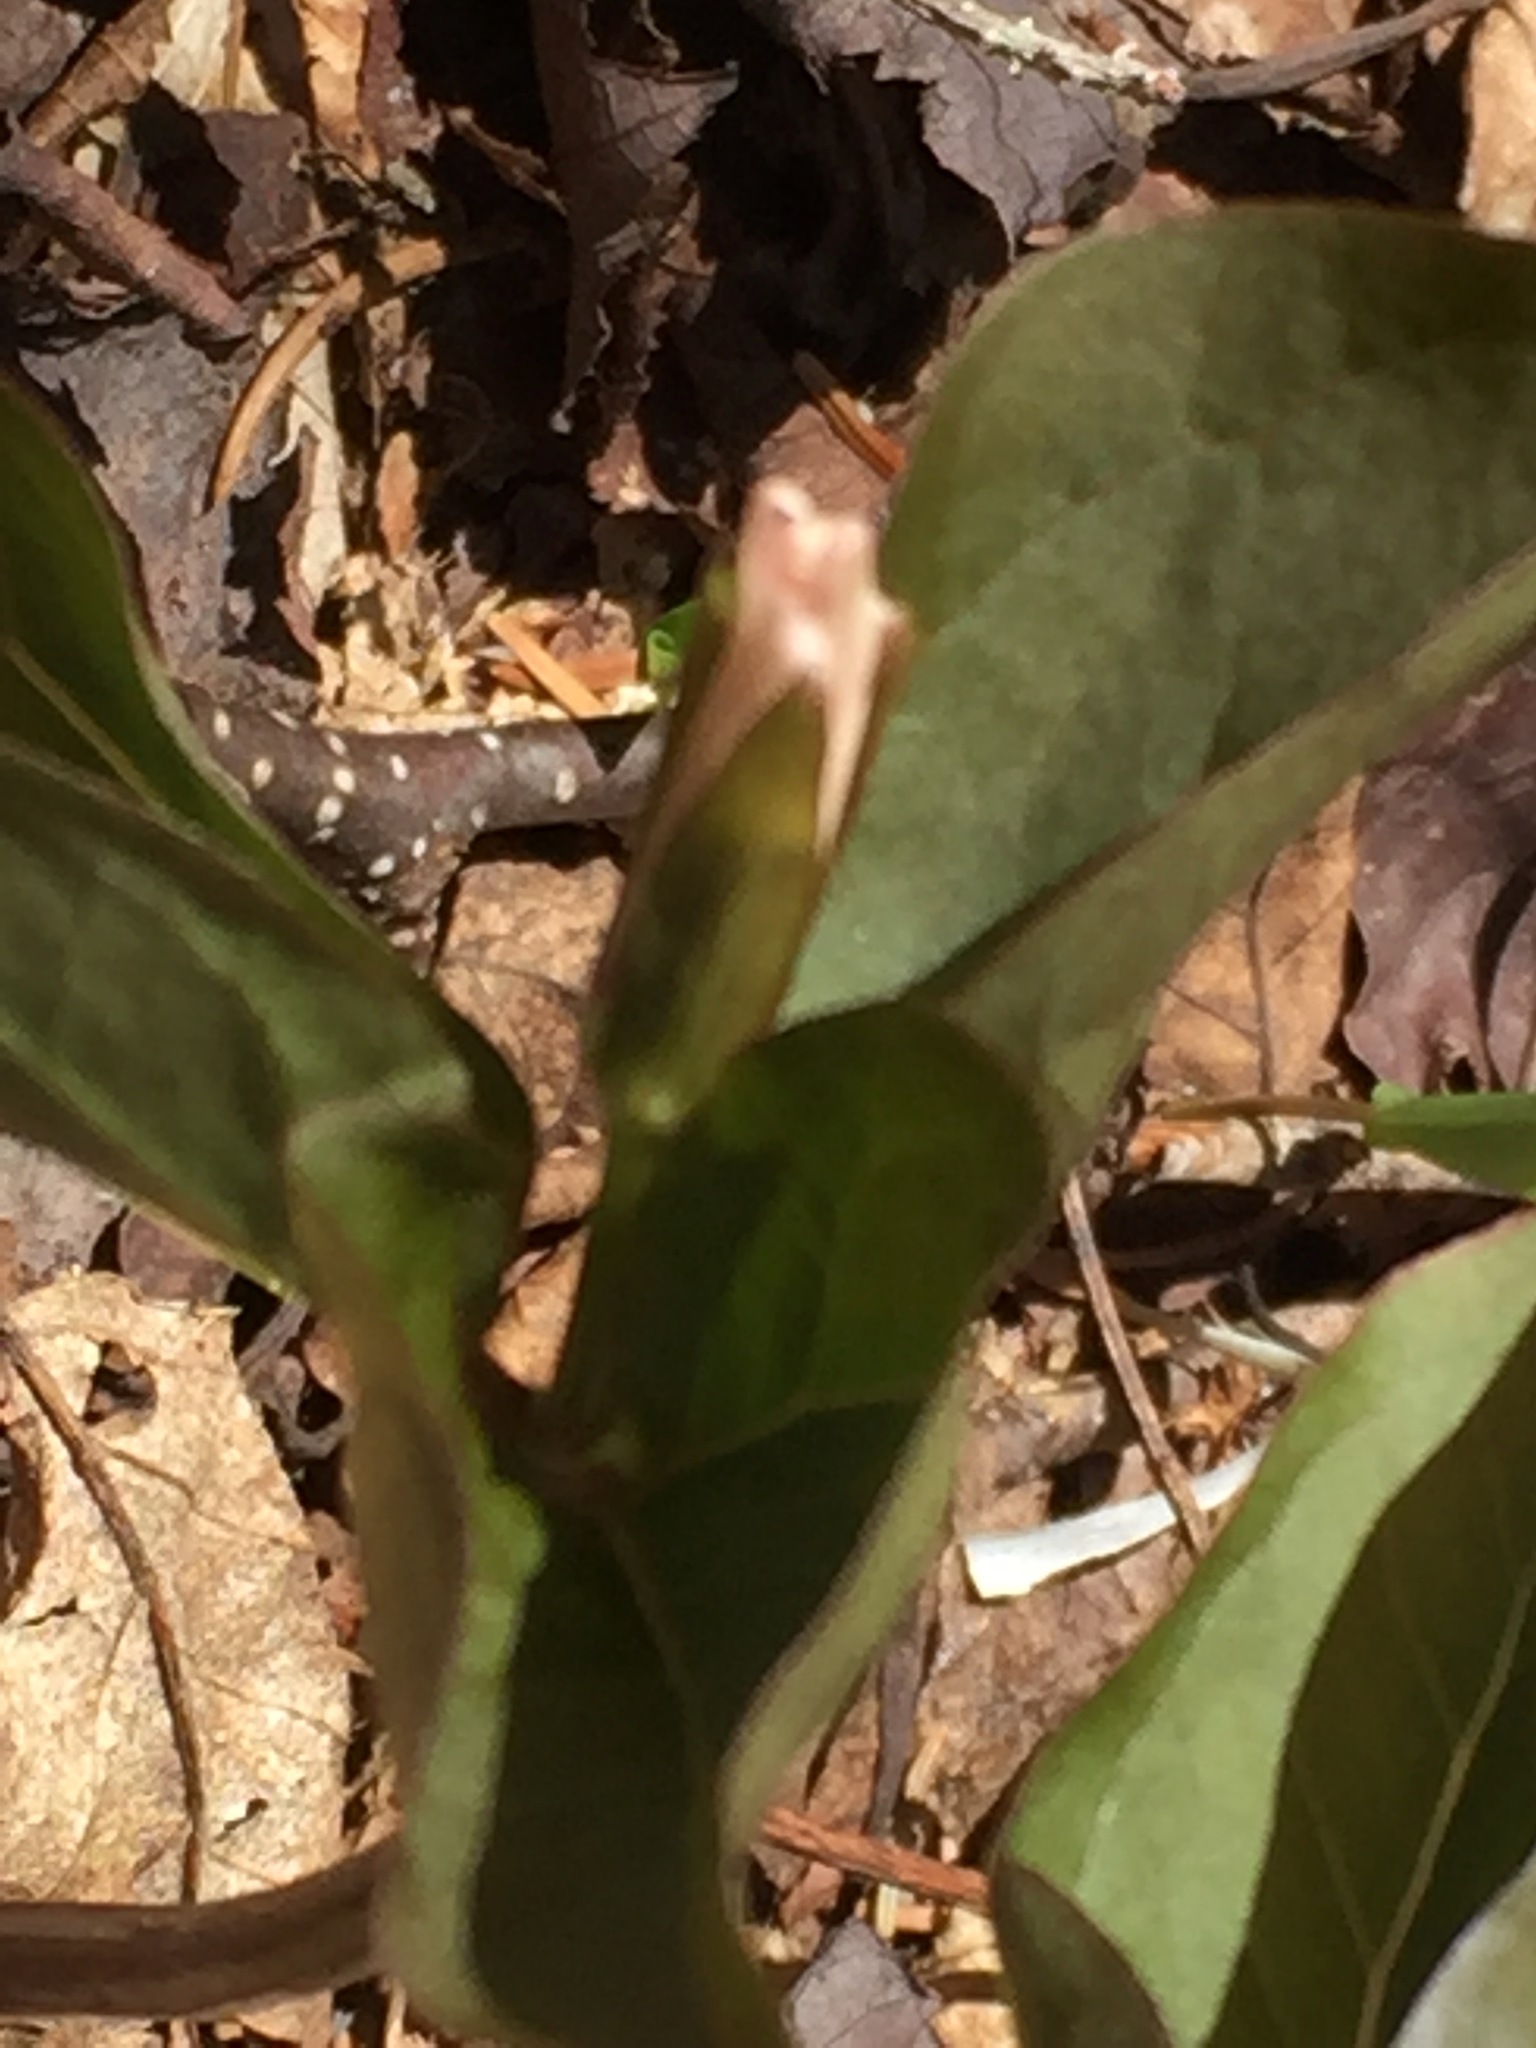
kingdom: Plantae
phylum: Tracheophyta
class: Liliopsida
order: Liliales
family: Melanthiaceae
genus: Trillium
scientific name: Trillium undulatum
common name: Paint trillium
